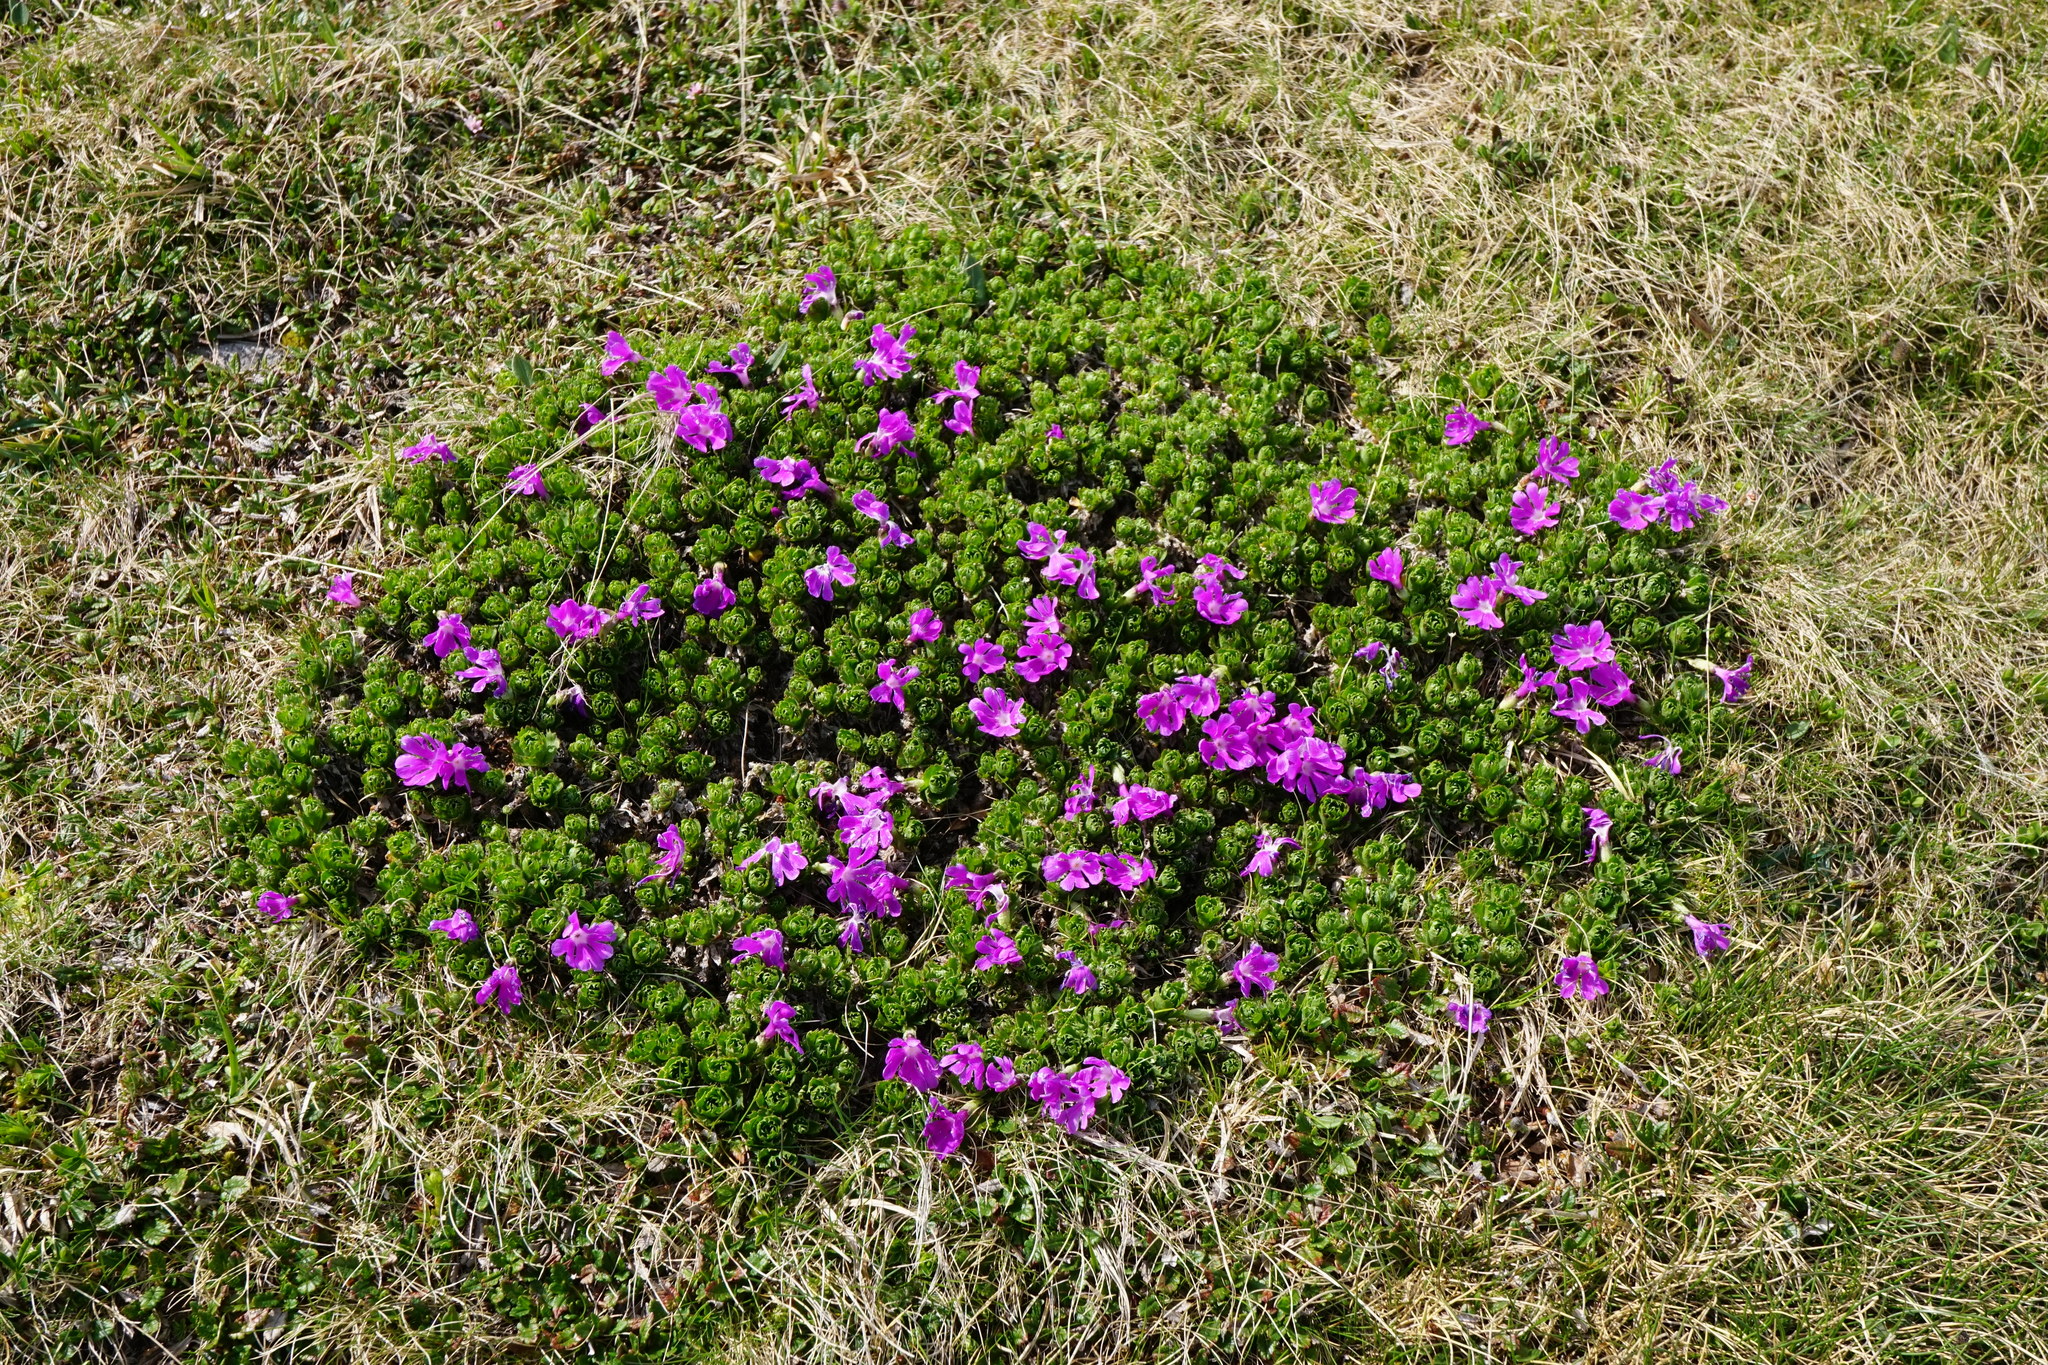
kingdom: Plantae
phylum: Tracheophyta
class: Magnoliopsida
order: Ericales
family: Primulaceae
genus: Primula
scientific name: Primula minima
